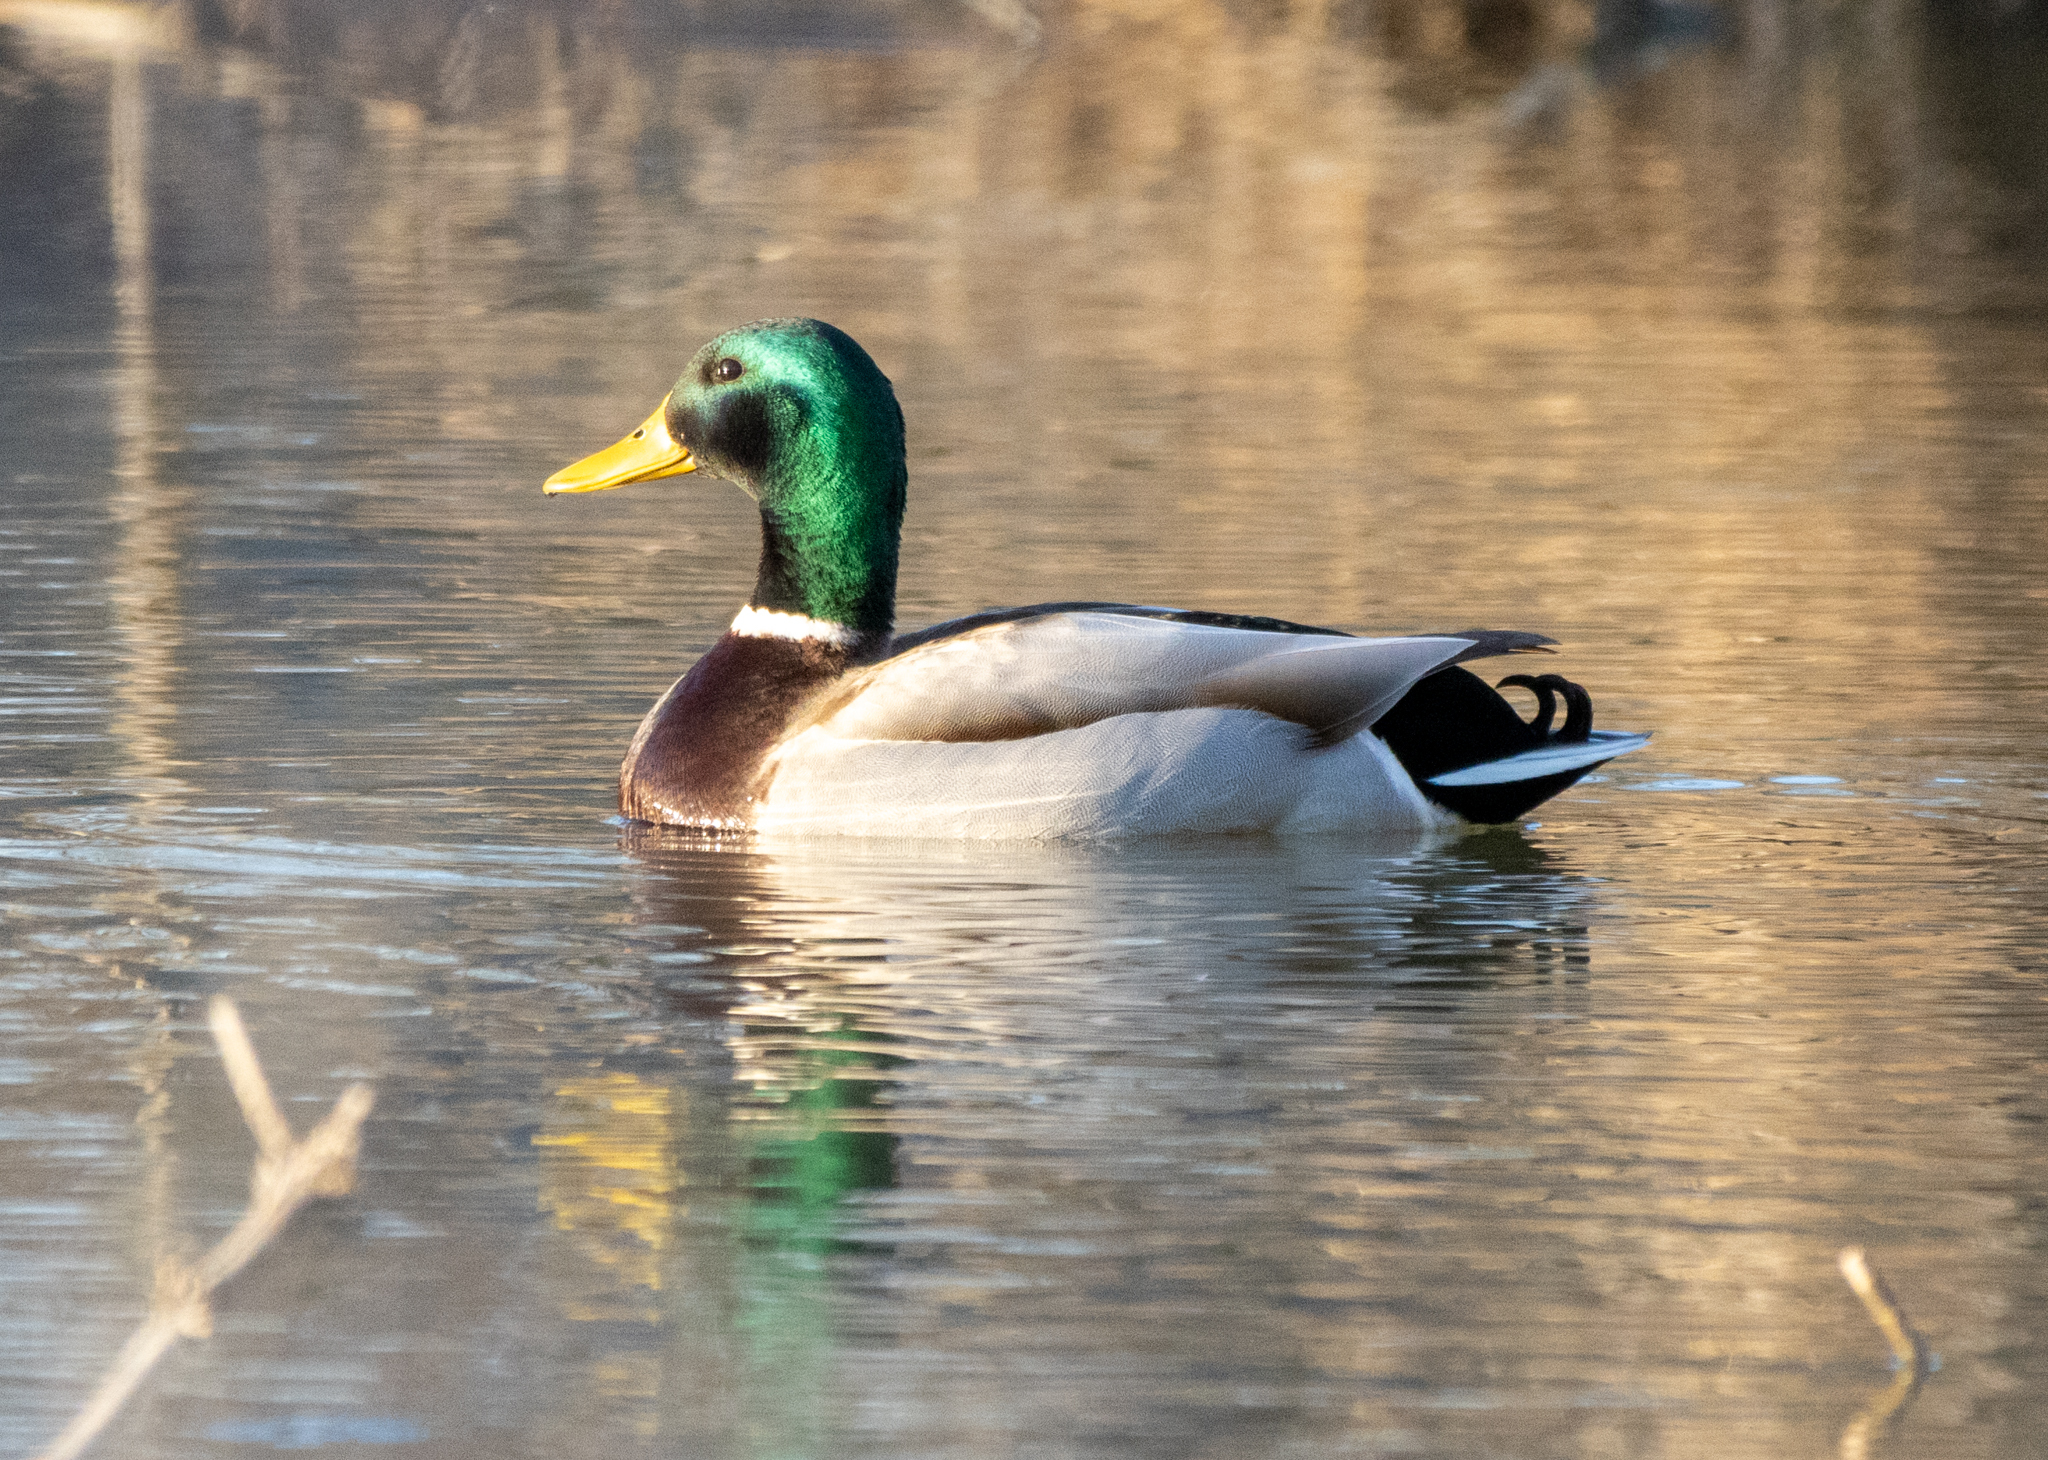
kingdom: Animalia
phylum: Chordata
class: Aves
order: Anseriformes
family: Anatidae
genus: Anas
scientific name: Anas platyrhynchos
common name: Mallard
